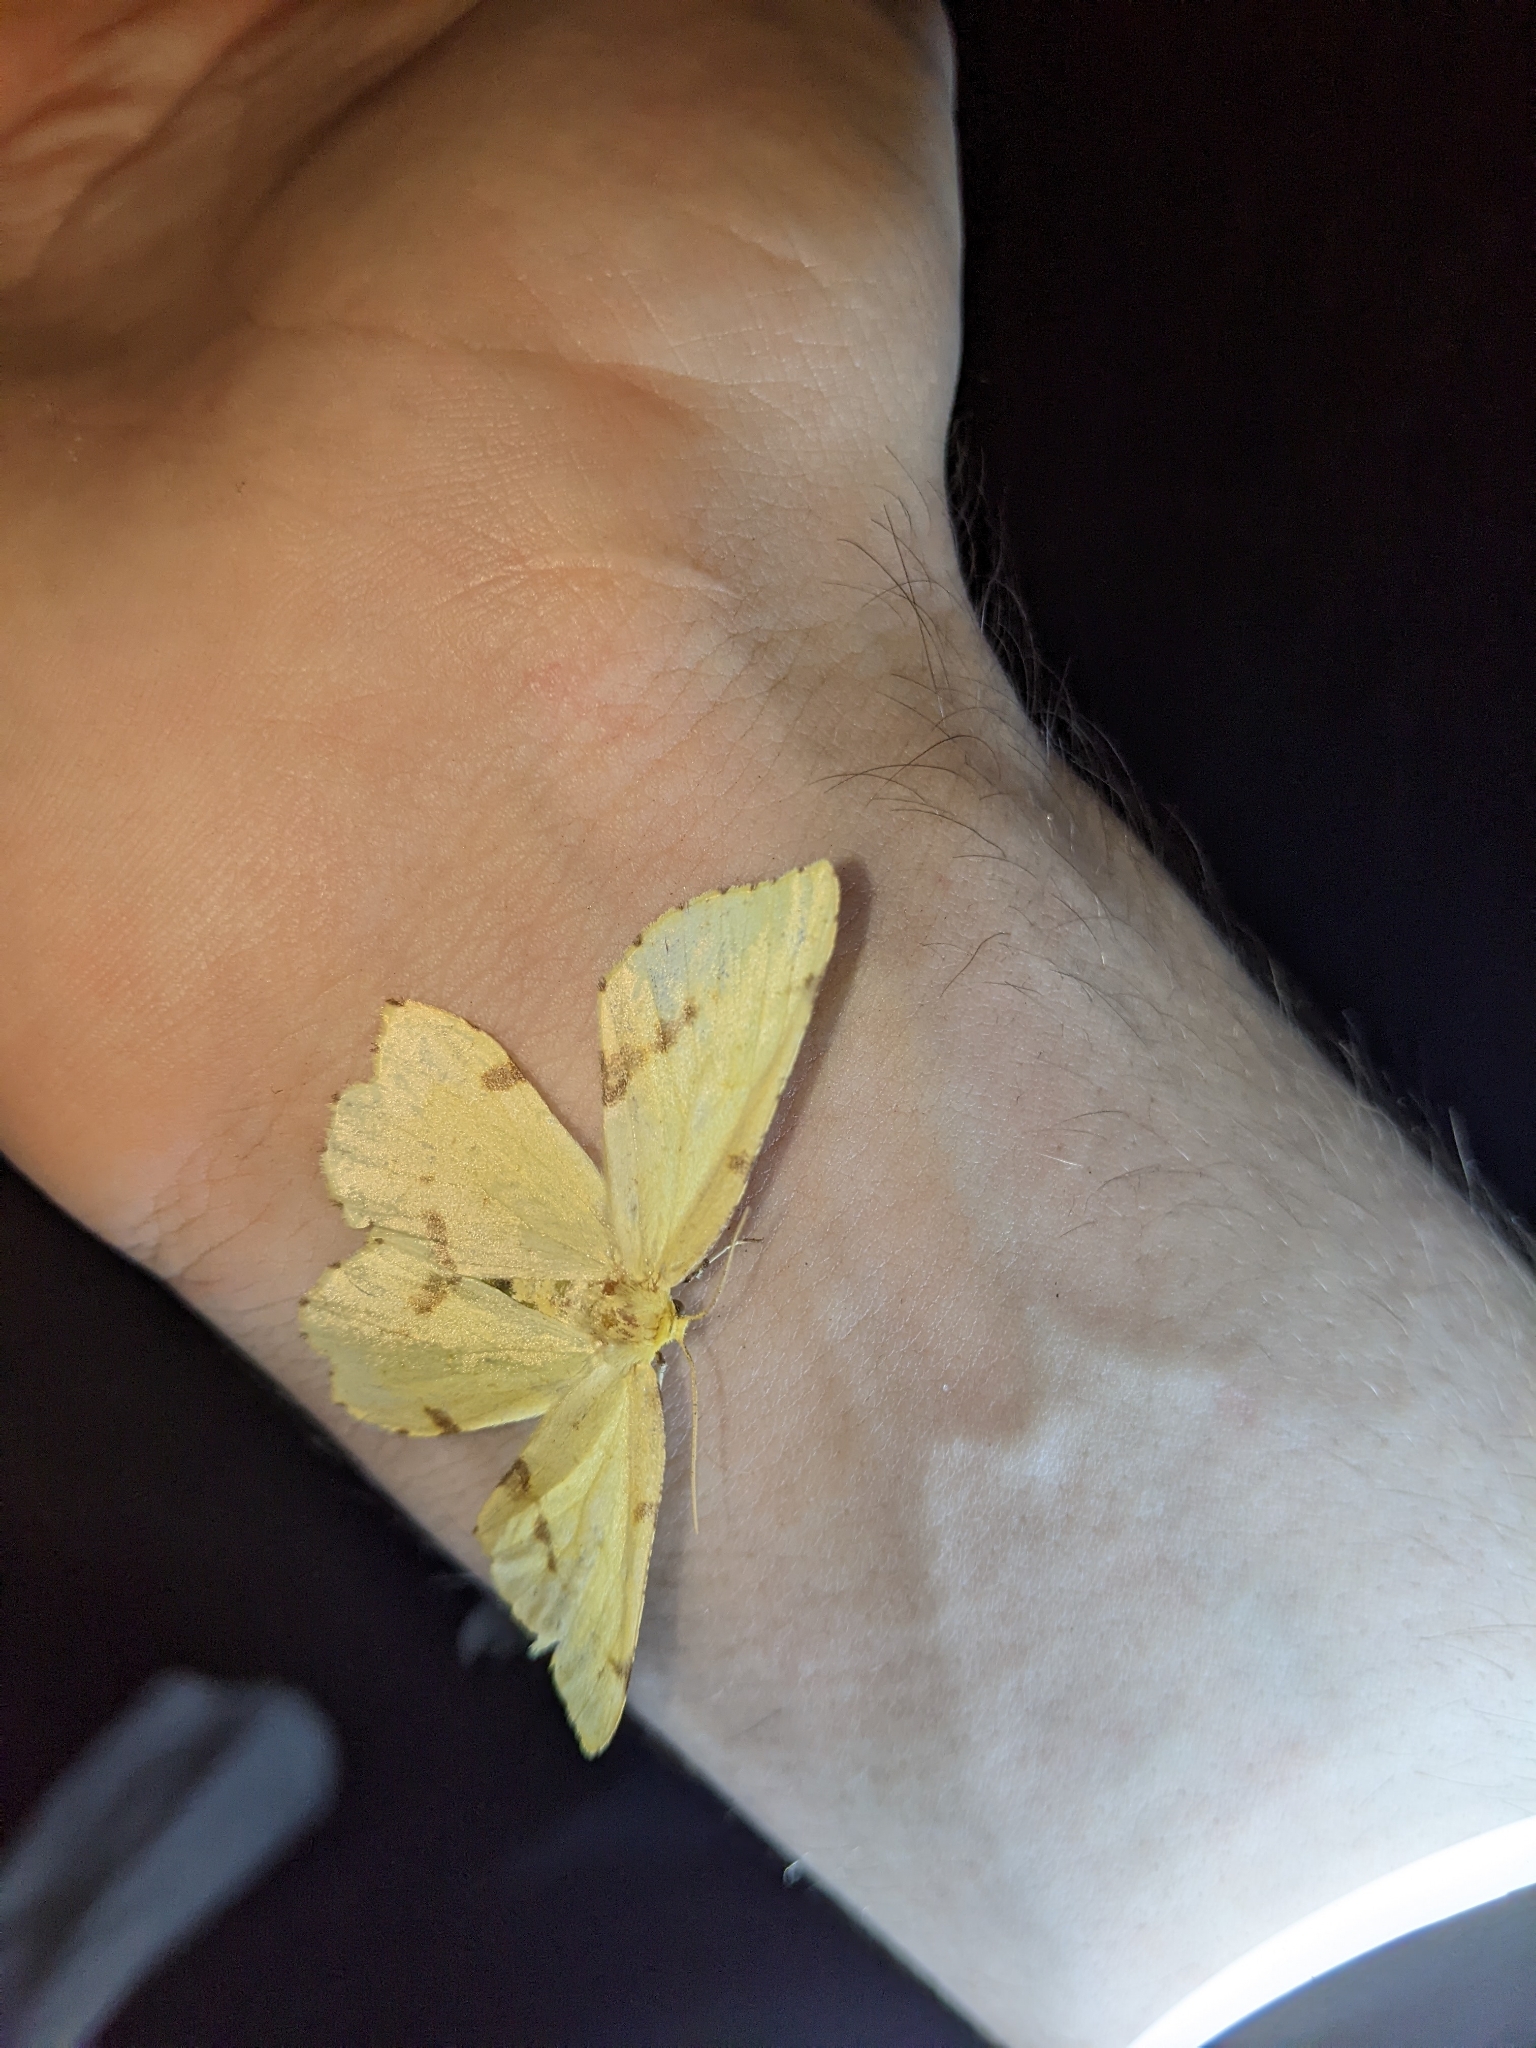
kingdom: Animalia
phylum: Arthropoda
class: Insecta
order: Lepidoptera
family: Geometridae
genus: Xanthotype
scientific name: Xanthotype
